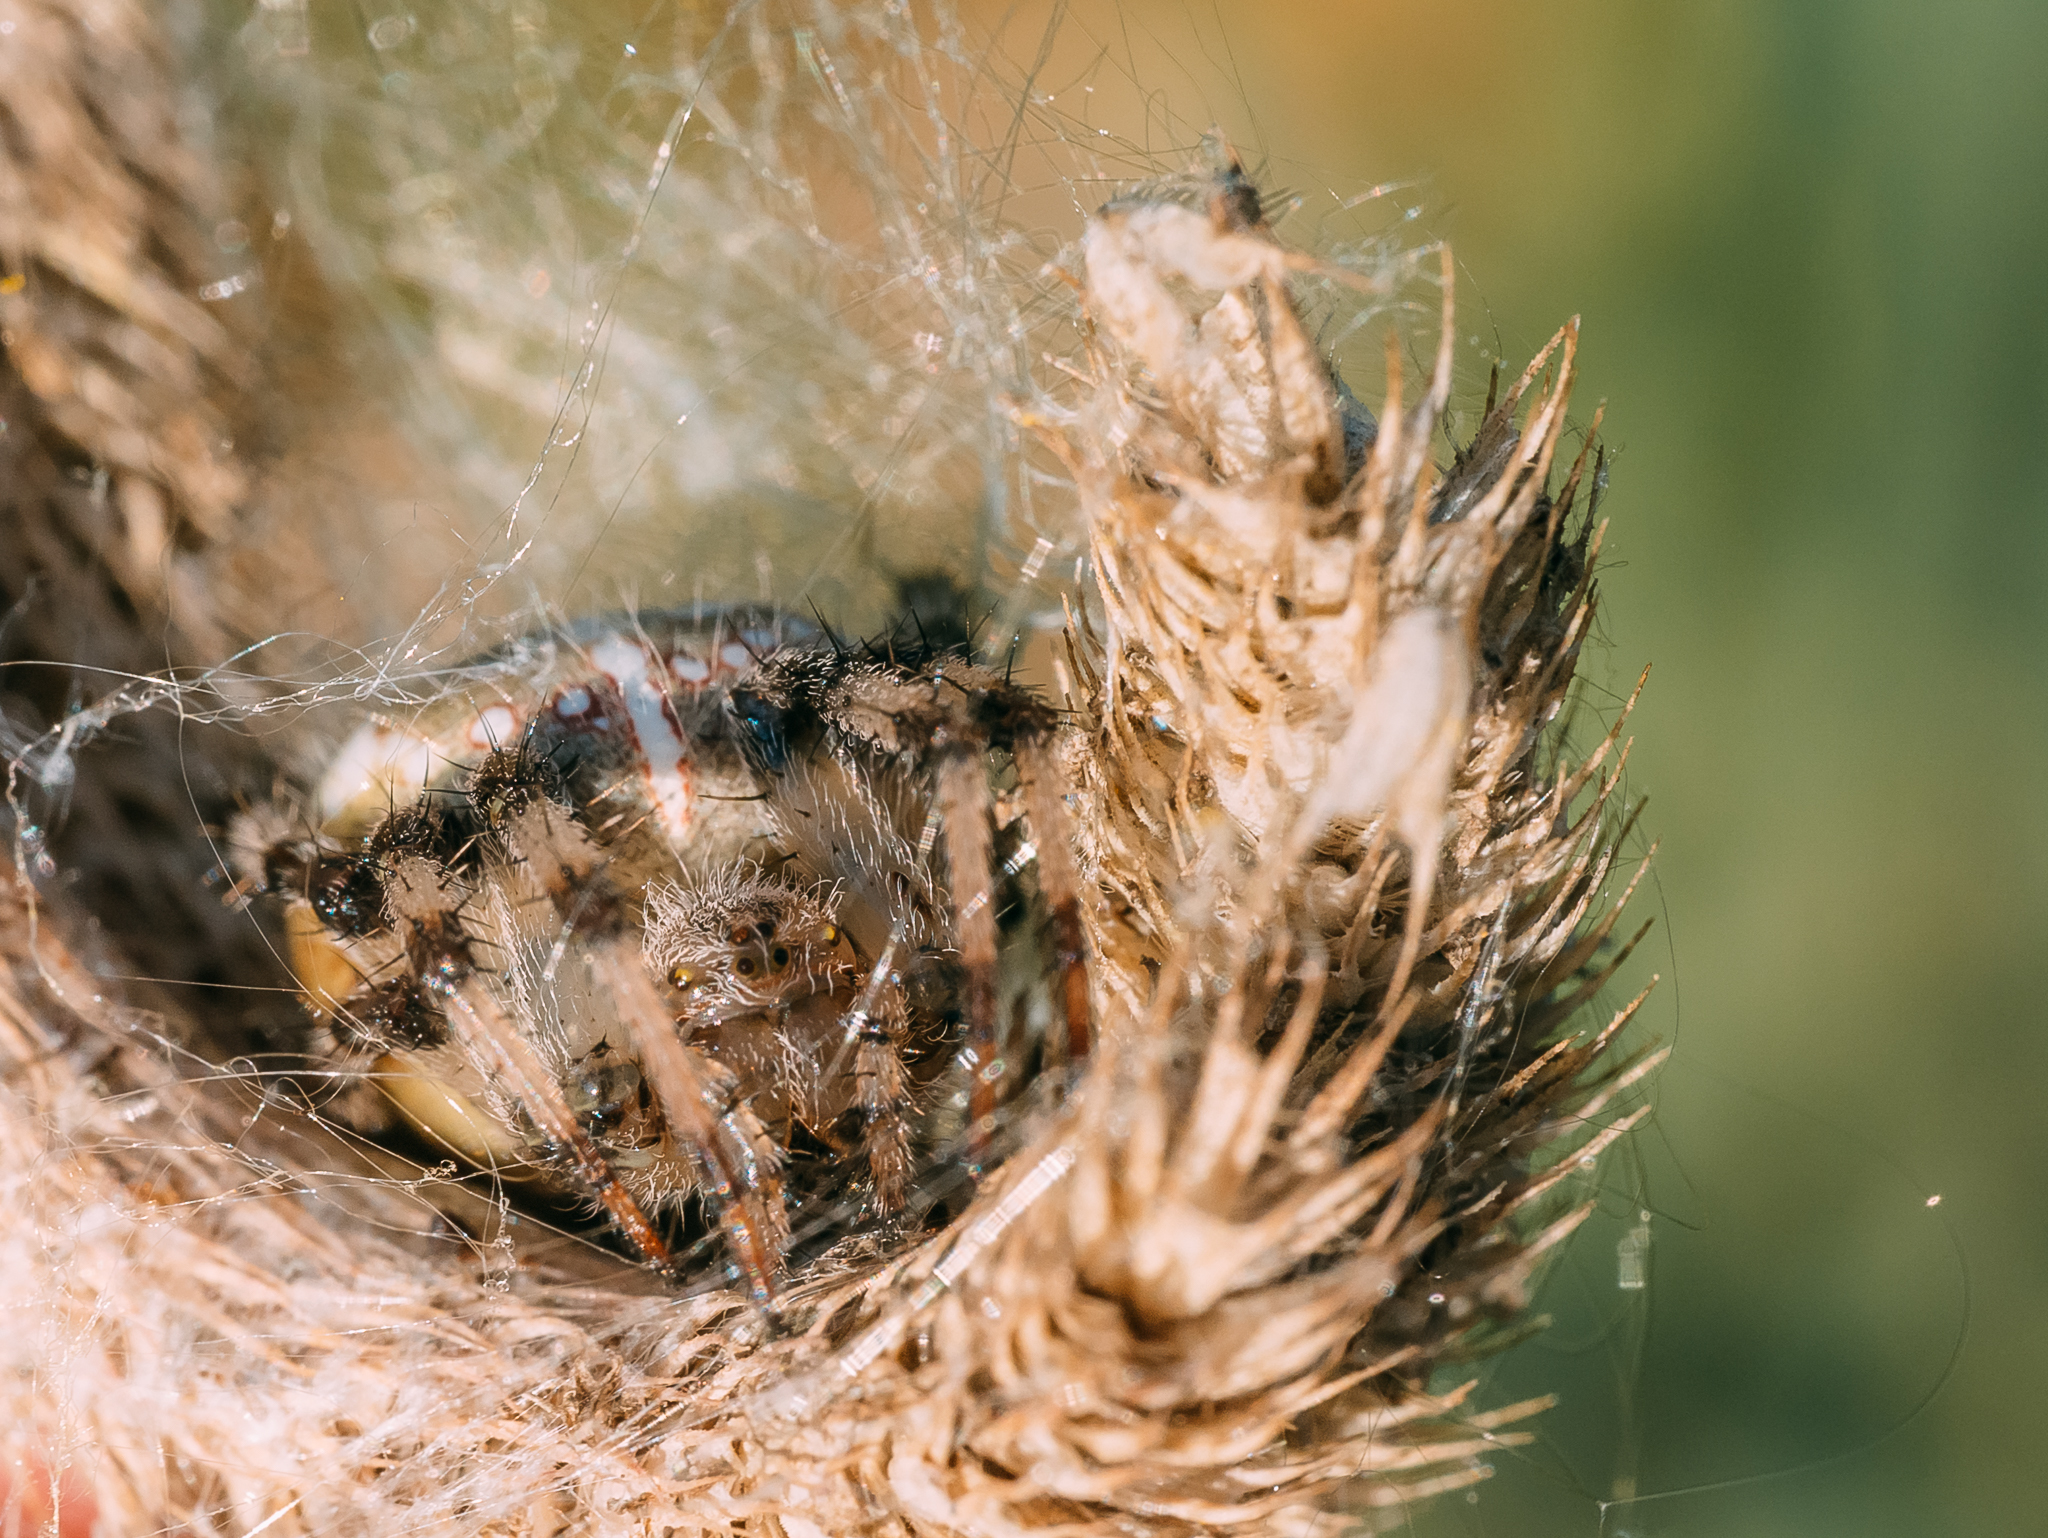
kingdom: Animalia
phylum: Arthropoda
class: Arachnida
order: Araneae
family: Araneidae
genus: Araneus
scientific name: Araneus quadratus
